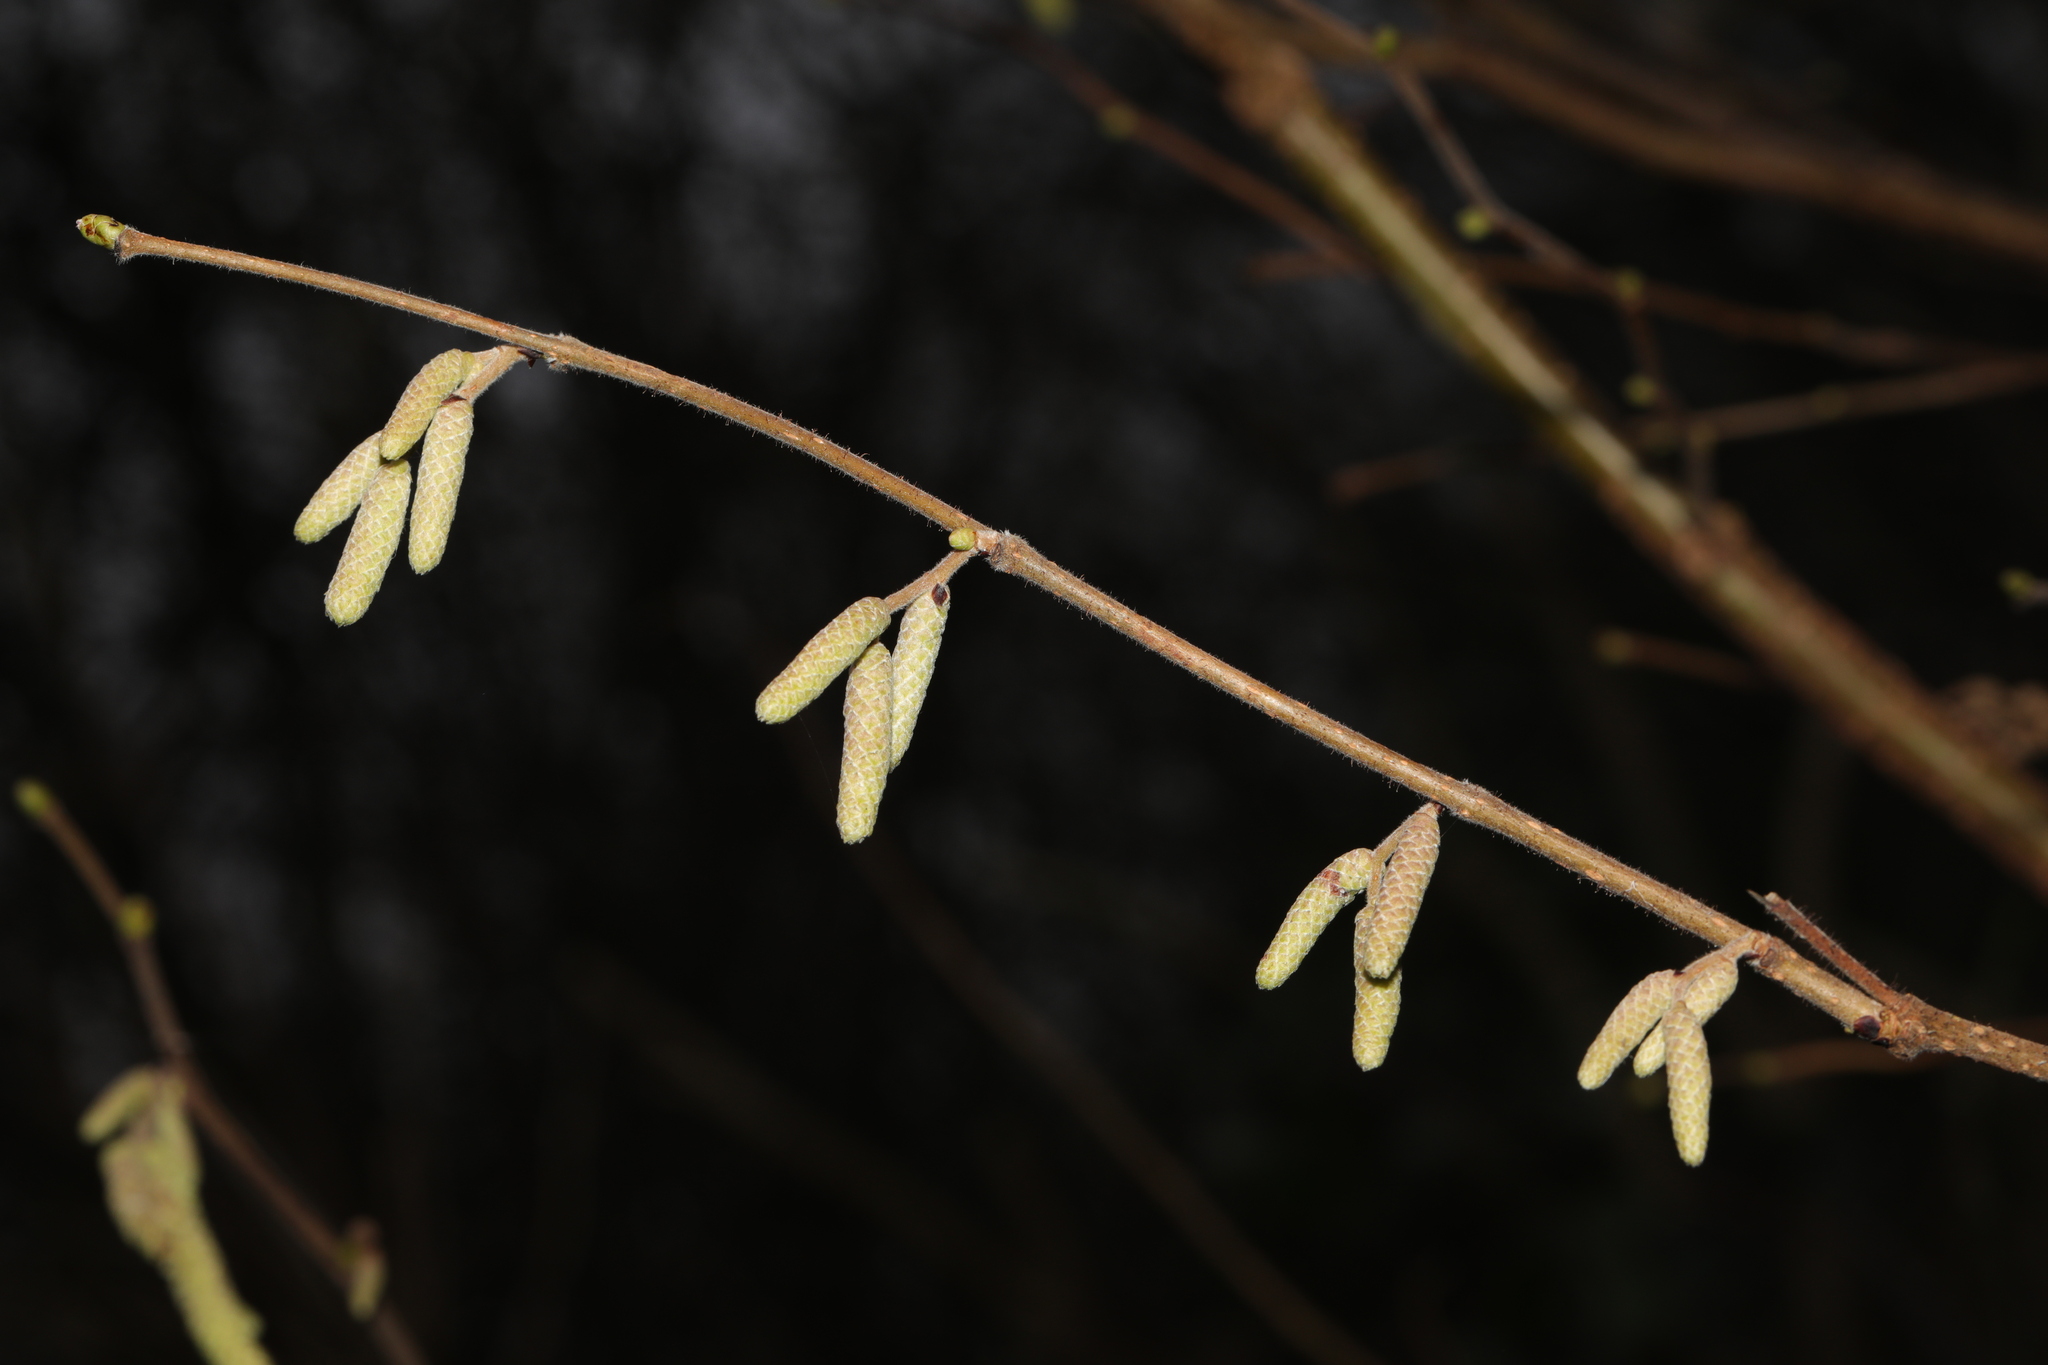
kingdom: Plantae
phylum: Tracheophyta
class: Magnoliopsida
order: Fagales
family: Betulaceae
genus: Corylus
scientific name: Corylus avellana
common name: European hazel
